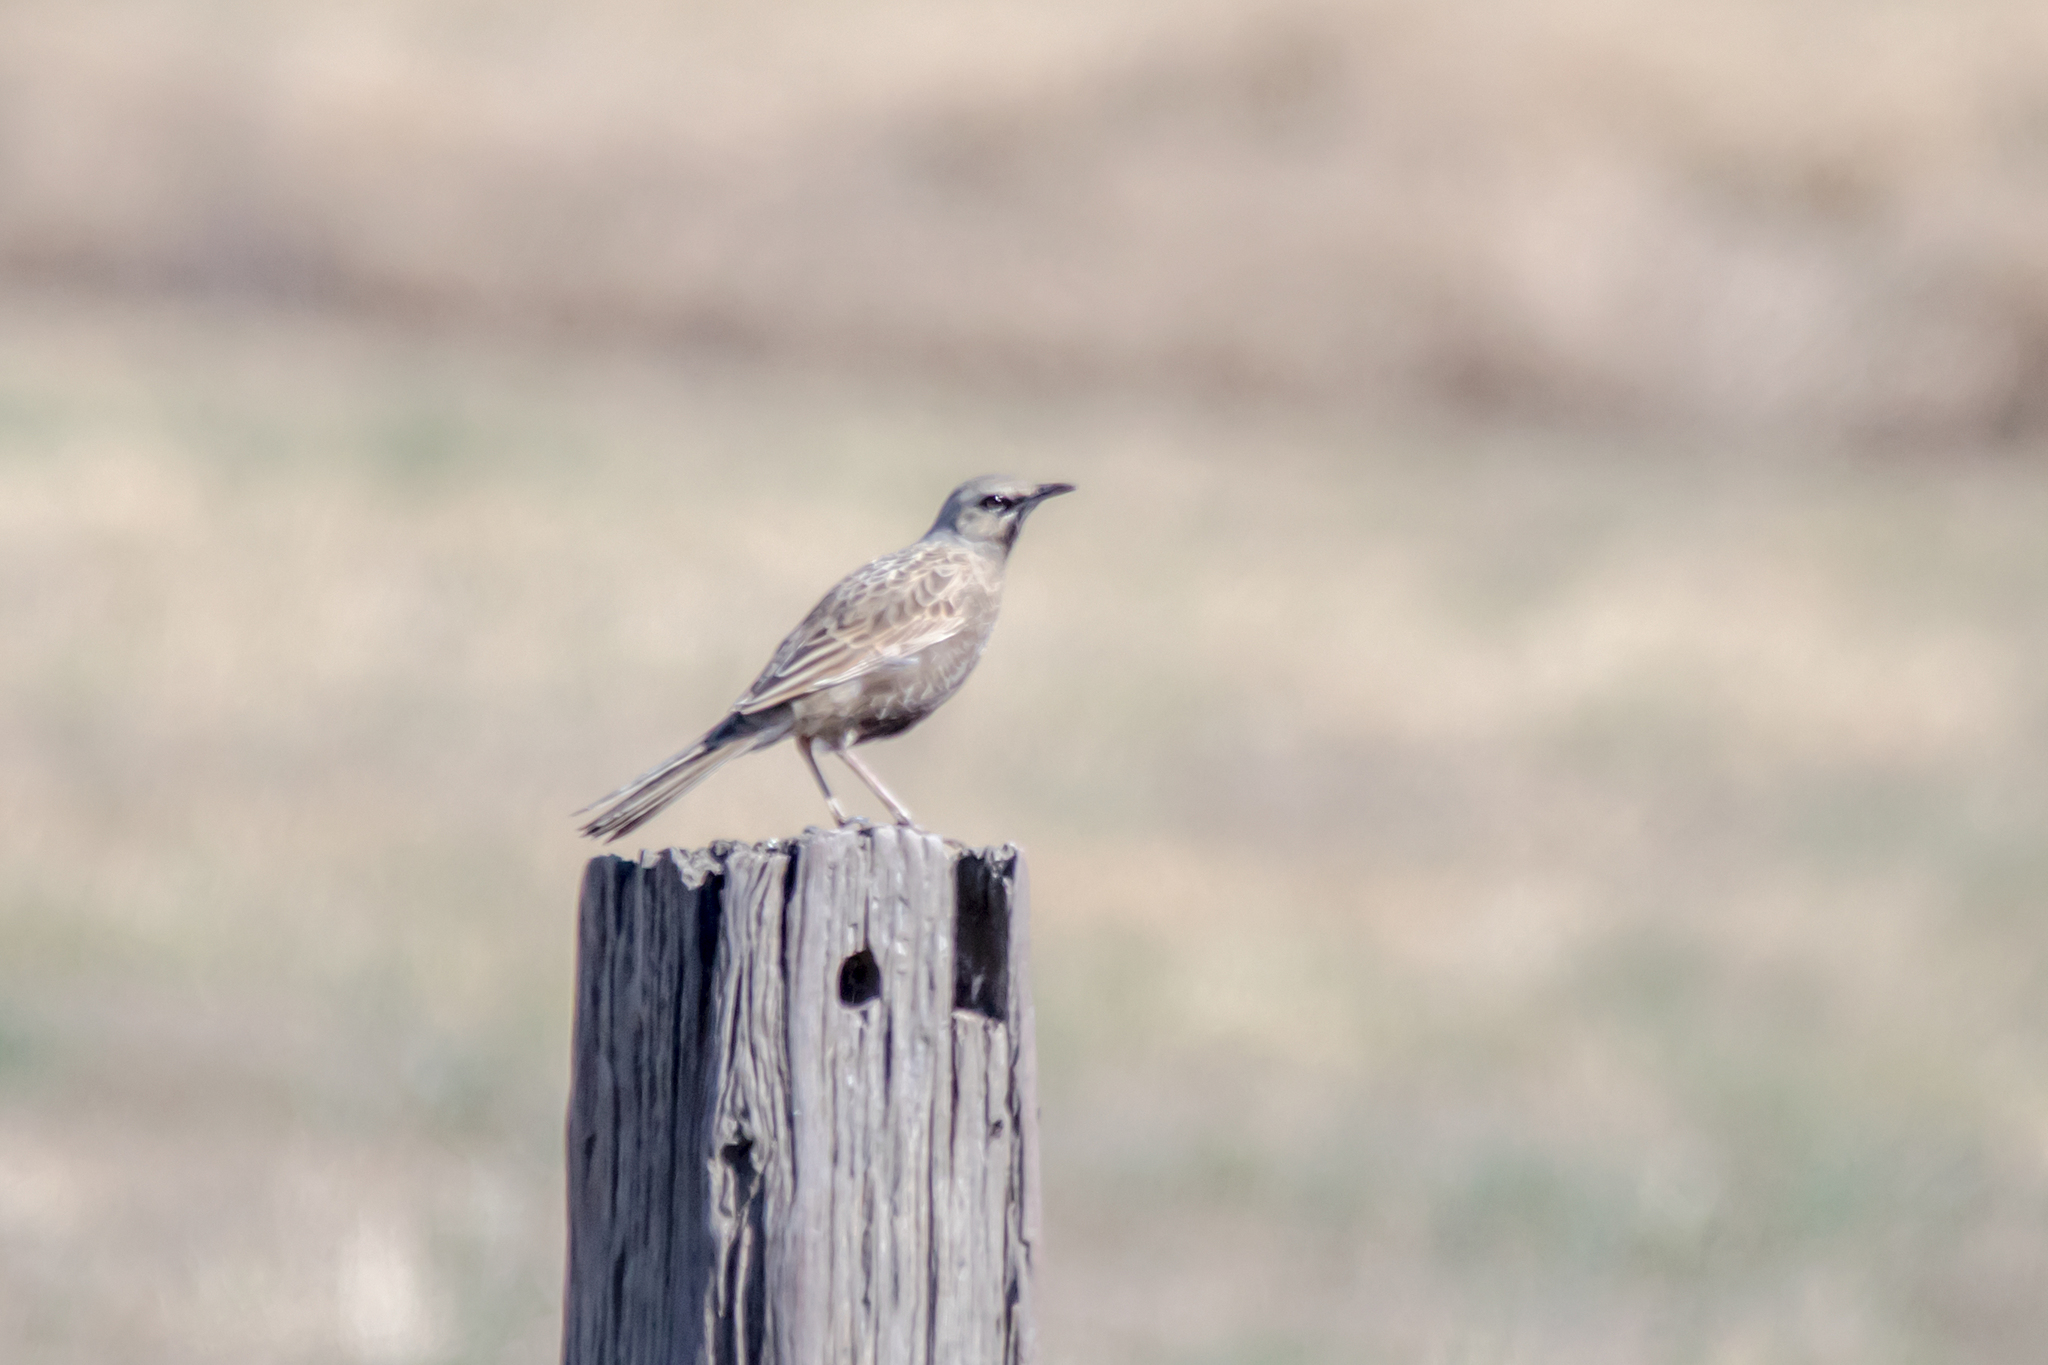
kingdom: Animalia
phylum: Chordata
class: Aves
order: Passeriformes
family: Locustellidae
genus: Megalurus
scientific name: Megalurus cruralis
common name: Brown songlark
